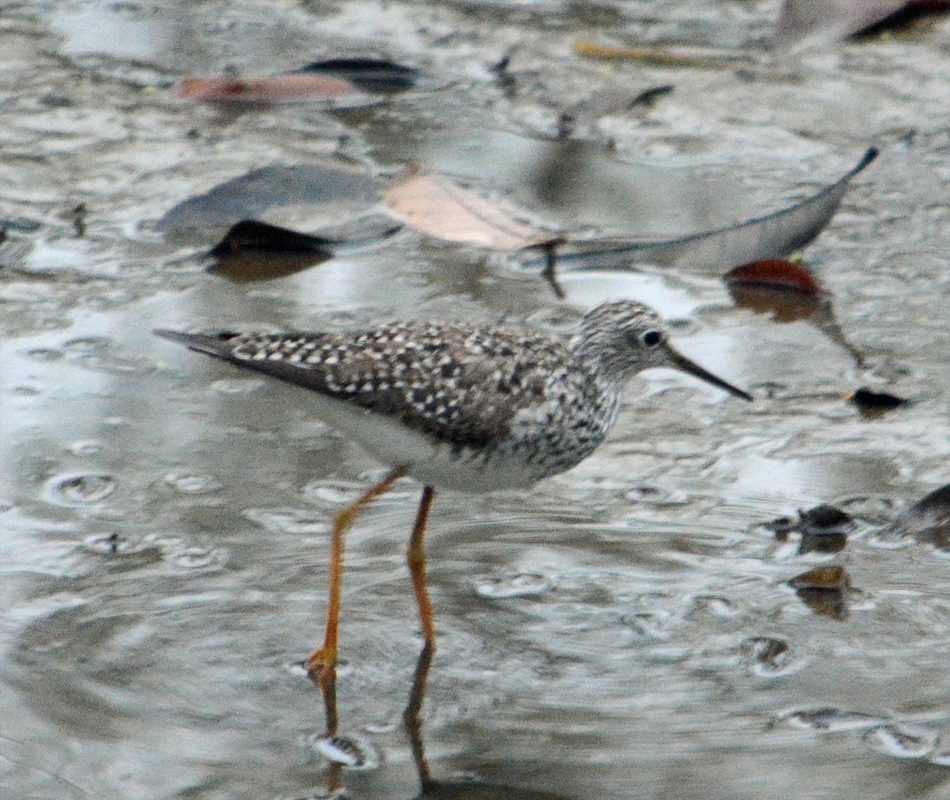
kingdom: Animalia
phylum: Chordata
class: Aves
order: Charadriiformes
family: Scolopacidae
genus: Tringa
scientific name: Tringa flavipes
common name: Lesser yellowlegs
